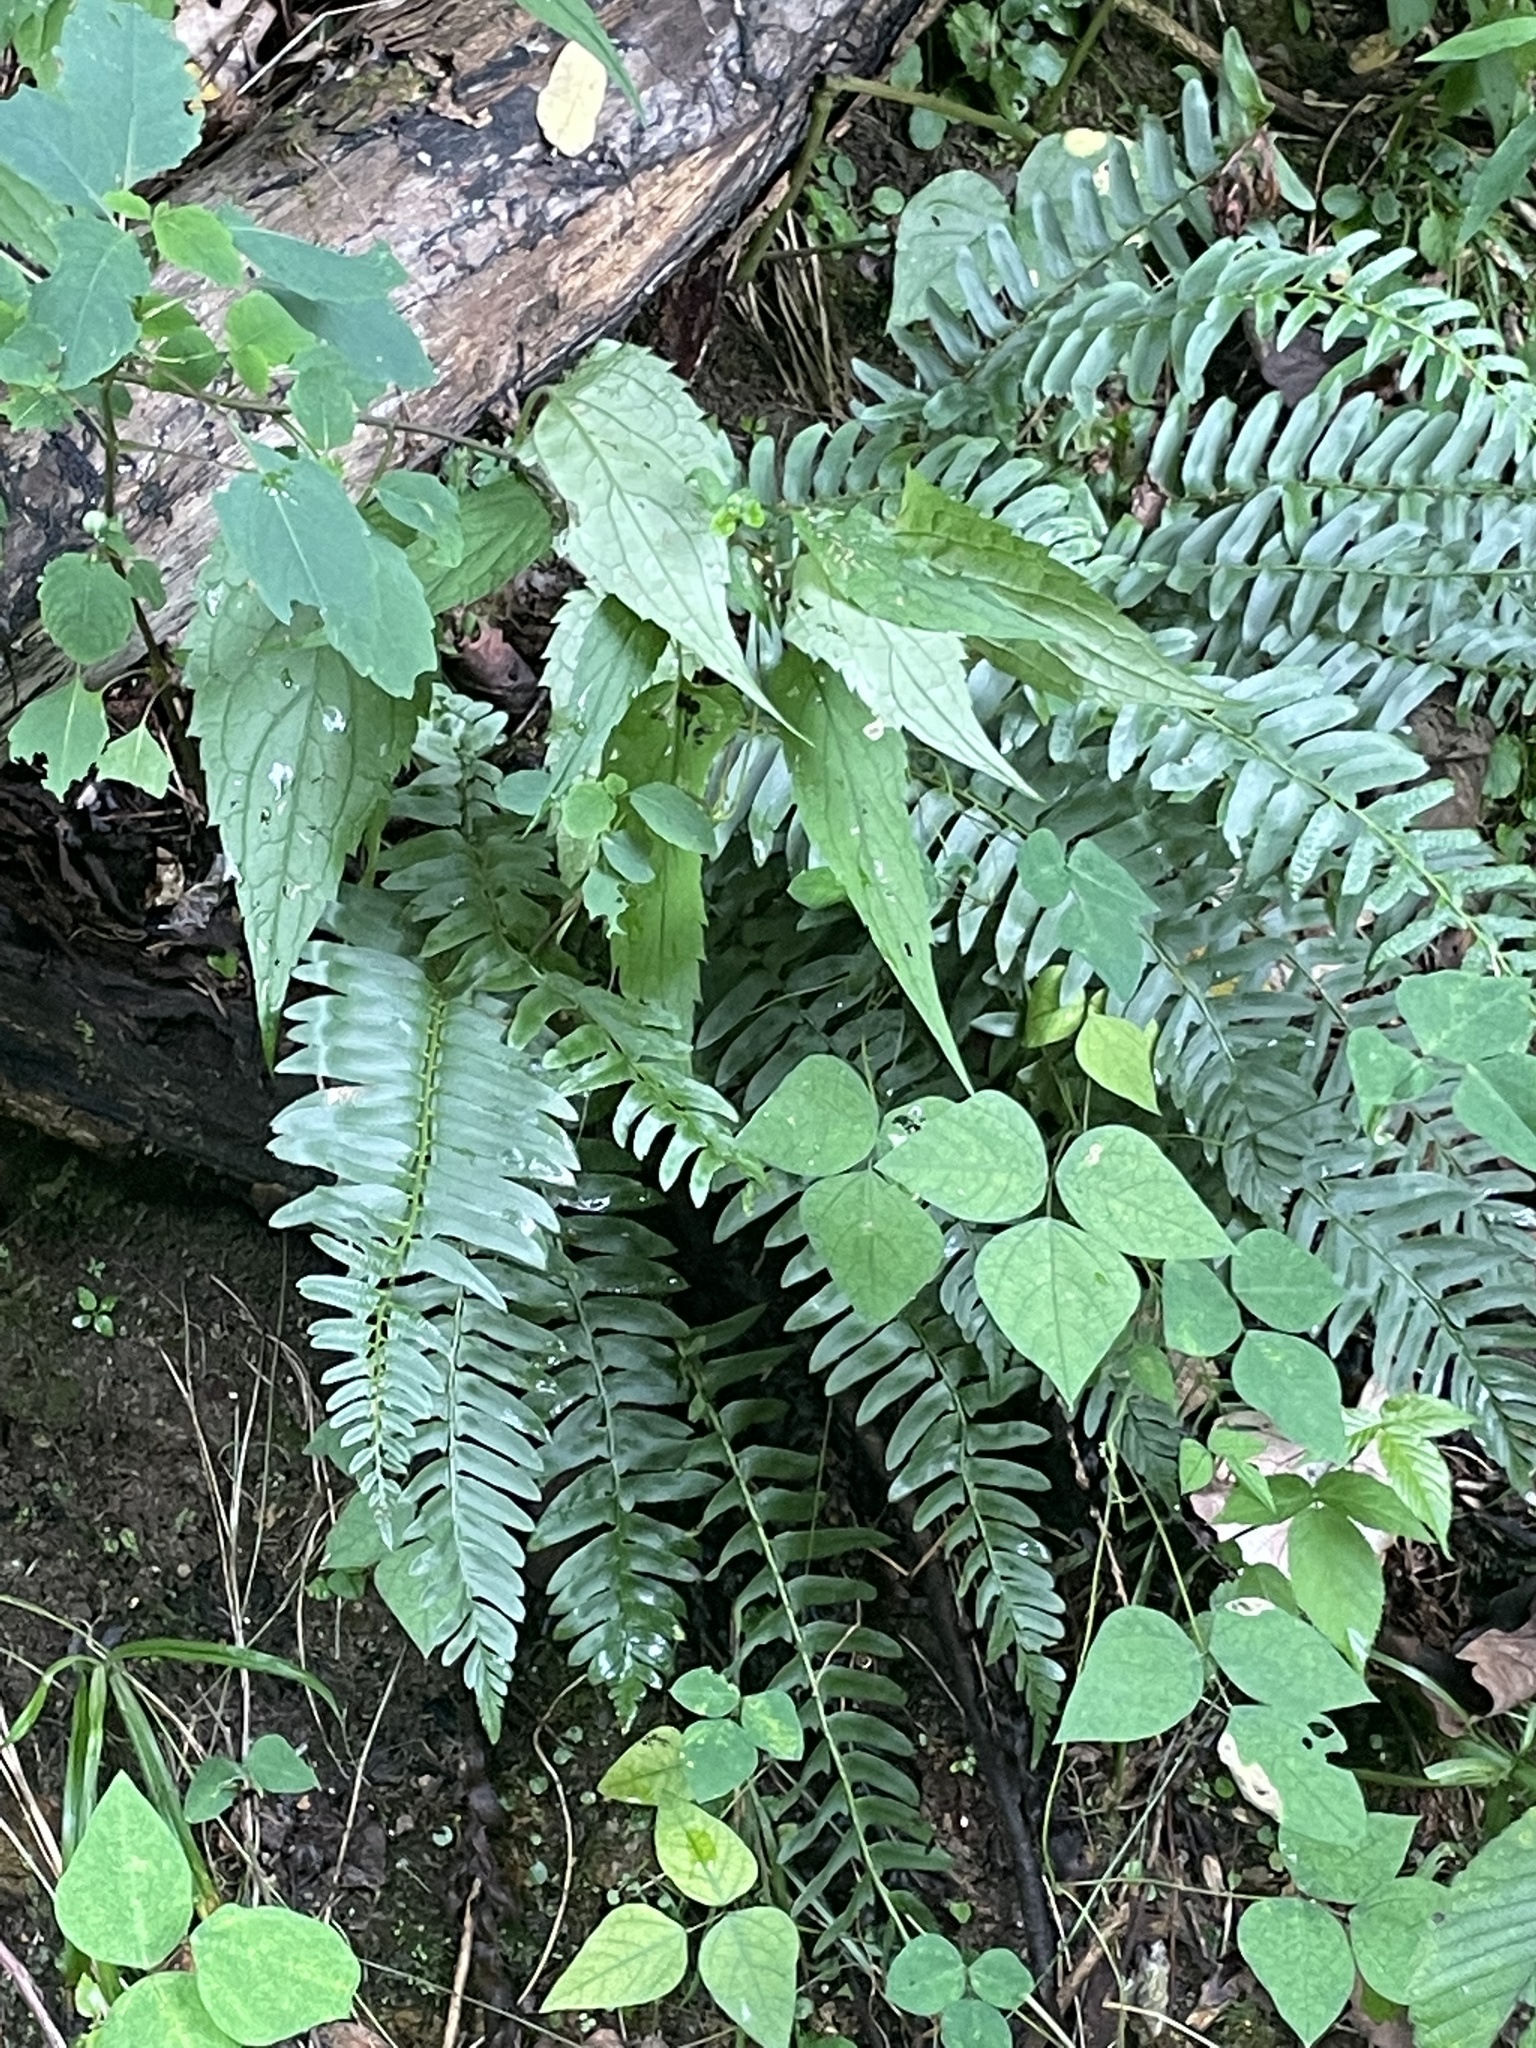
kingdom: Plantae
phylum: Tracheophyta
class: Polypodiopsida
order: Polypodiales
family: Dryopteridaceae
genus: Polystichum
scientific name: Polystichum acrostichoides
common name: Christmas fern
